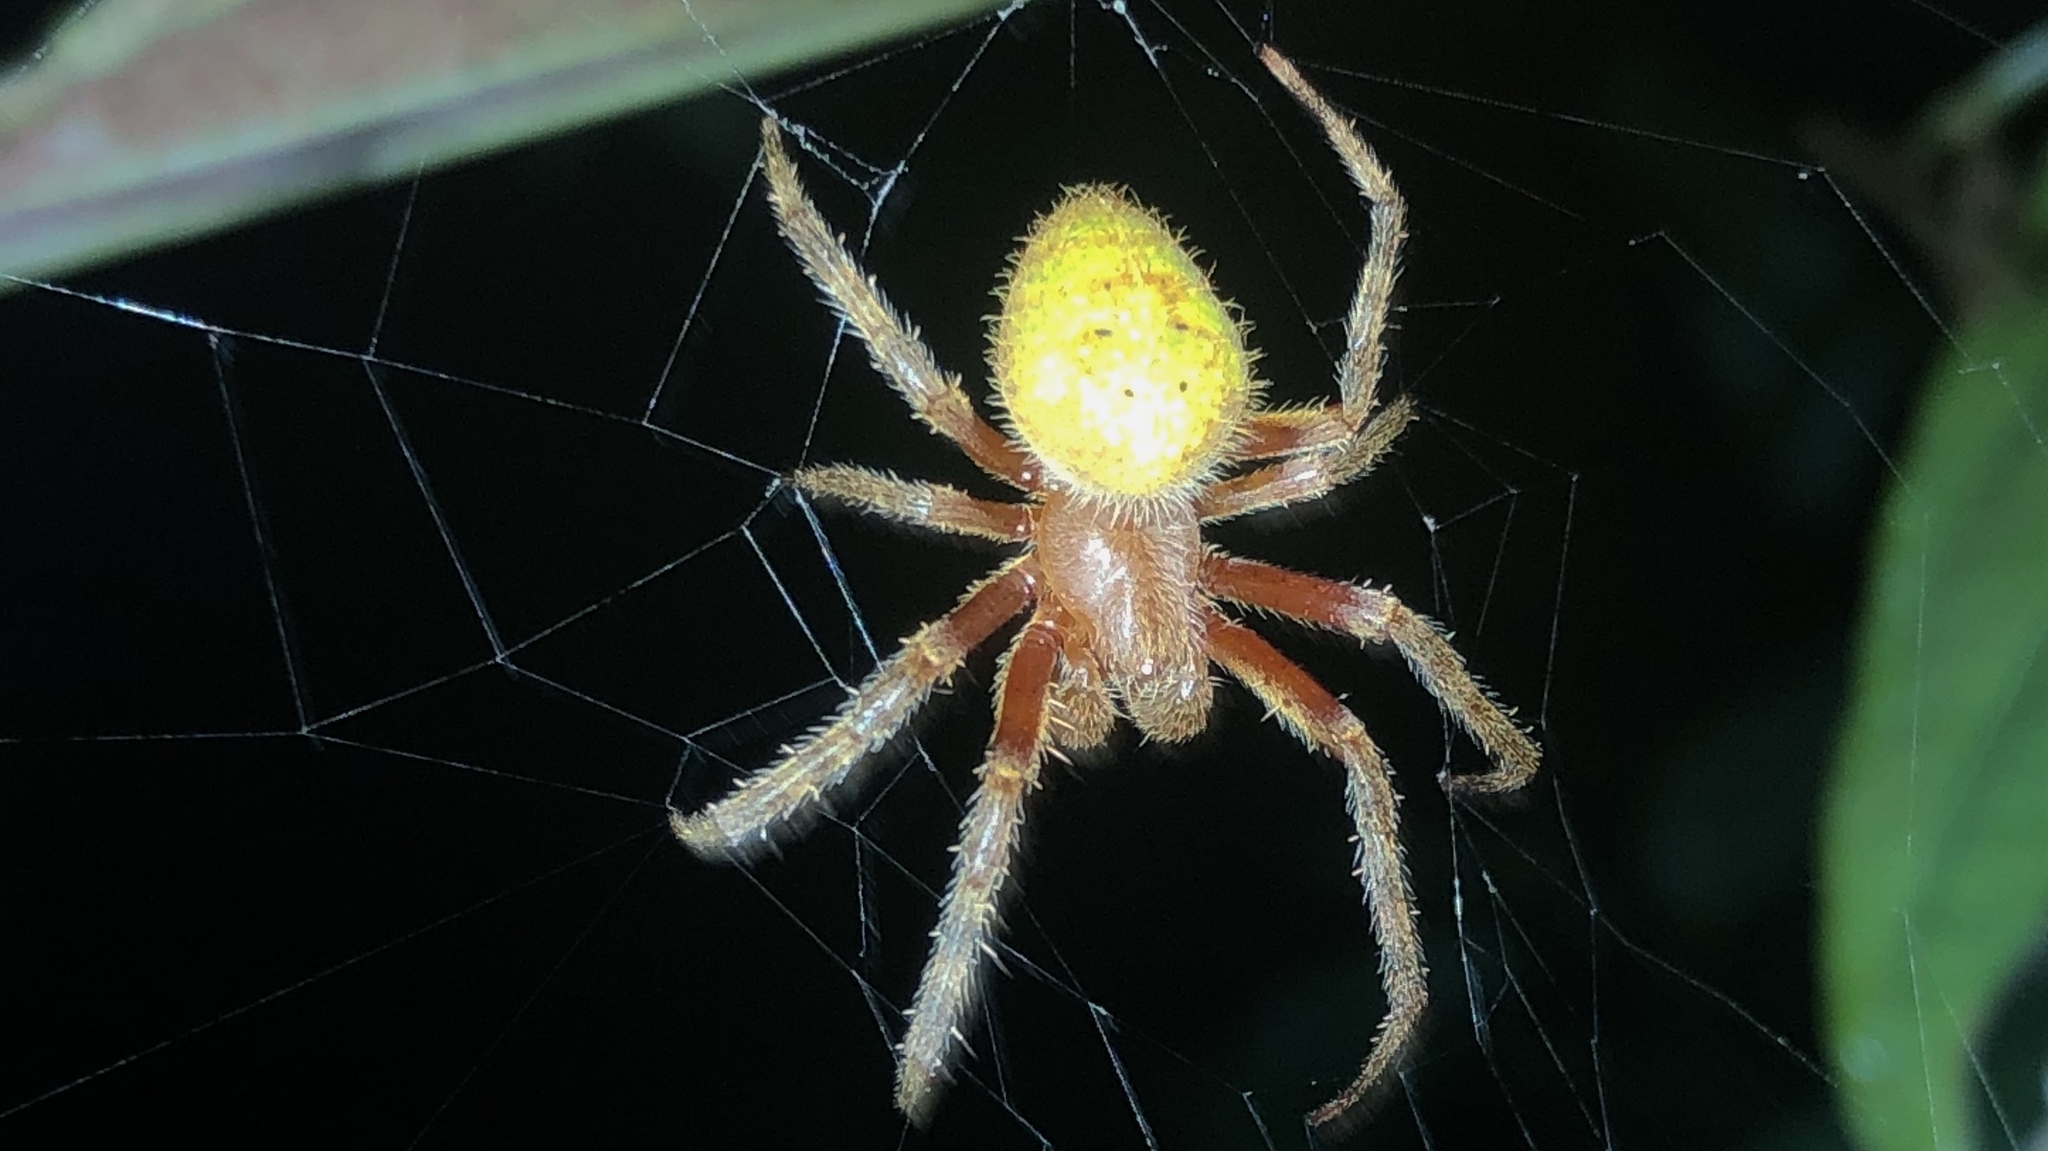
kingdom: Animalia
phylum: Arthropoda
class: Arachnida
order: Araneae
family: Araneidae
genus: Eriophora
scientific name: Eriophora ravilla
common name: Orb weavers
